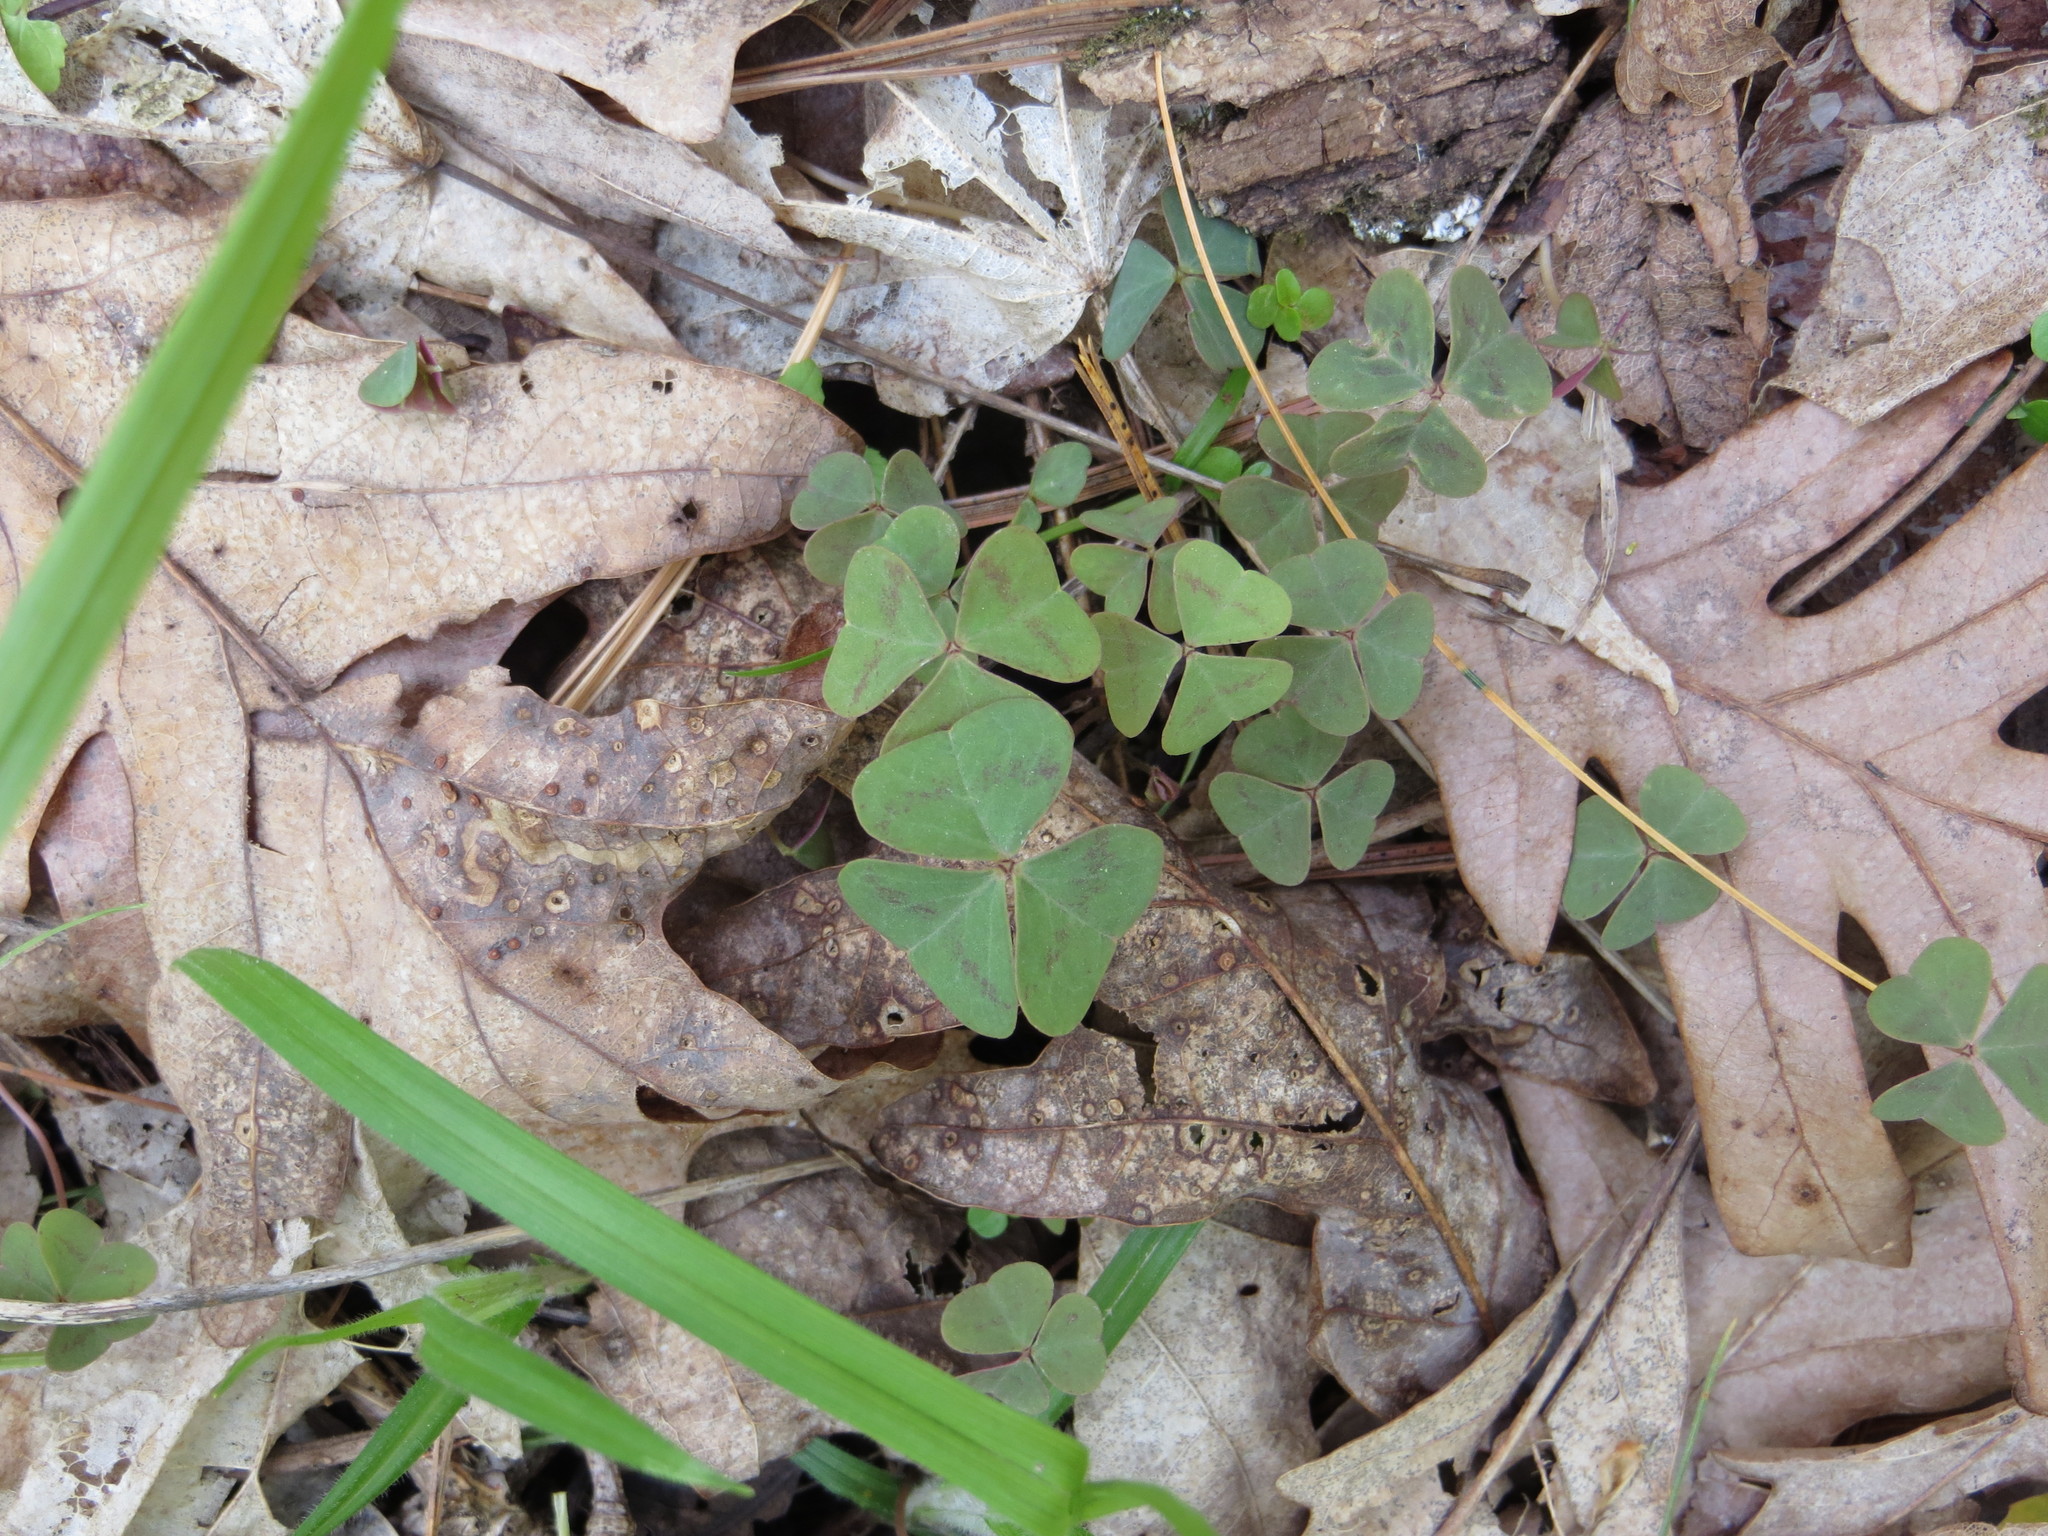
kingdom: Plantae
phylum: Tracheophyta
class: Magnoliopsida
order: Oxalidales
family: Oxalidaceae
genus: Oxalis
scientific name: Oxalis violacea
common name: Violet wood-sorrel
